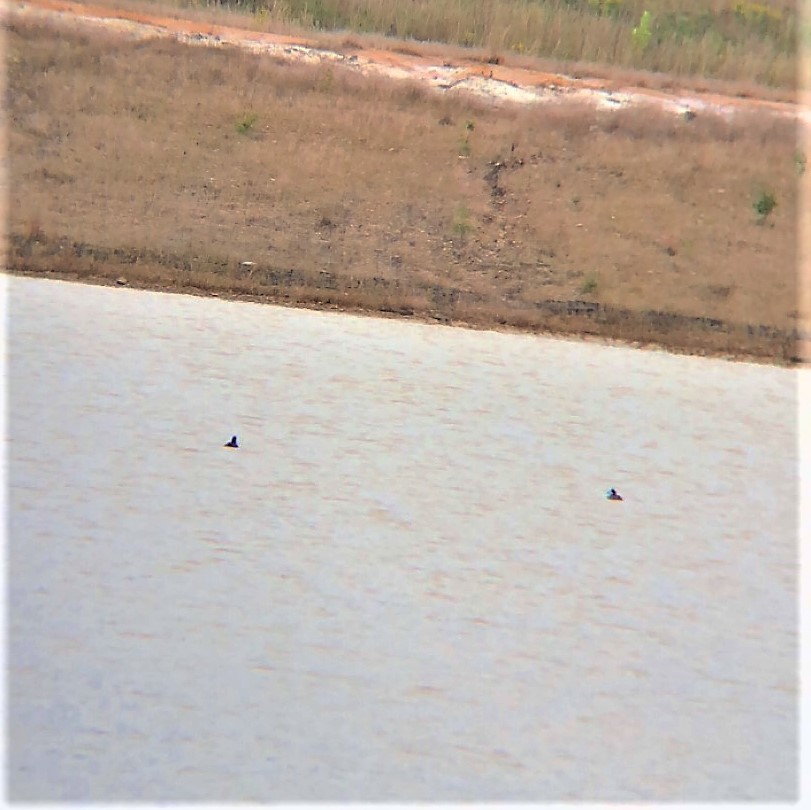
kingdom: Animalia
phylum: Chordata
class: Aves
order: Anseriformes
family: Anatidae
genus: Oxyura
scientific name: Oxyura jamaicensis
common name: Ruddy duck
